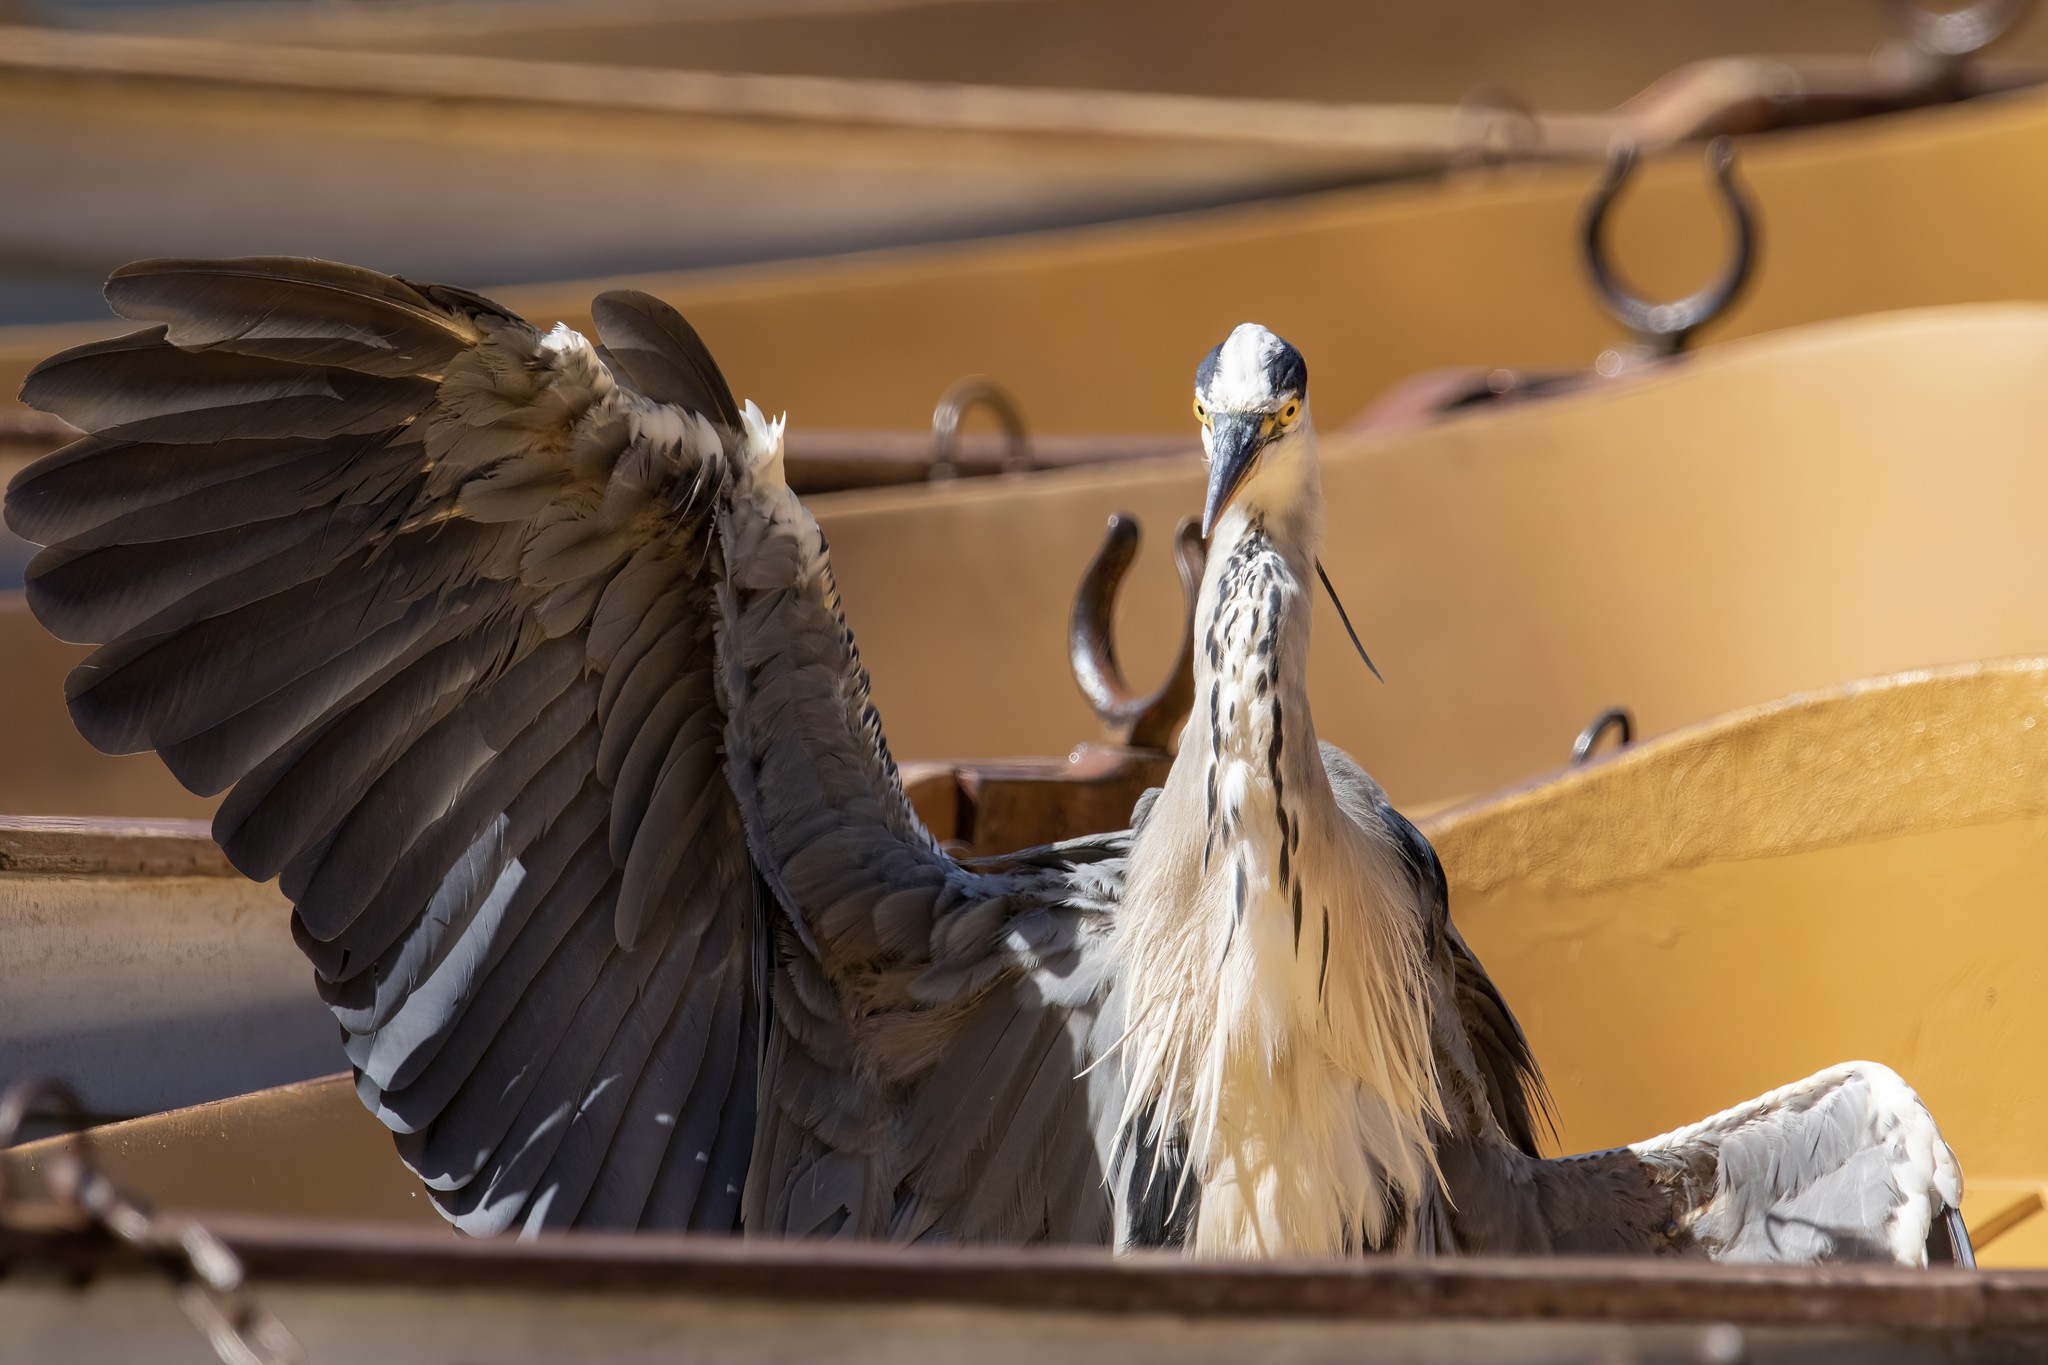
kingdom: Animalia
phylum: Chordata
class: Aves
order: Pelecaniformes
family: Ardeidae
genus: Ardea
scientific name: Ardea cinerea
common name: Grey heron
